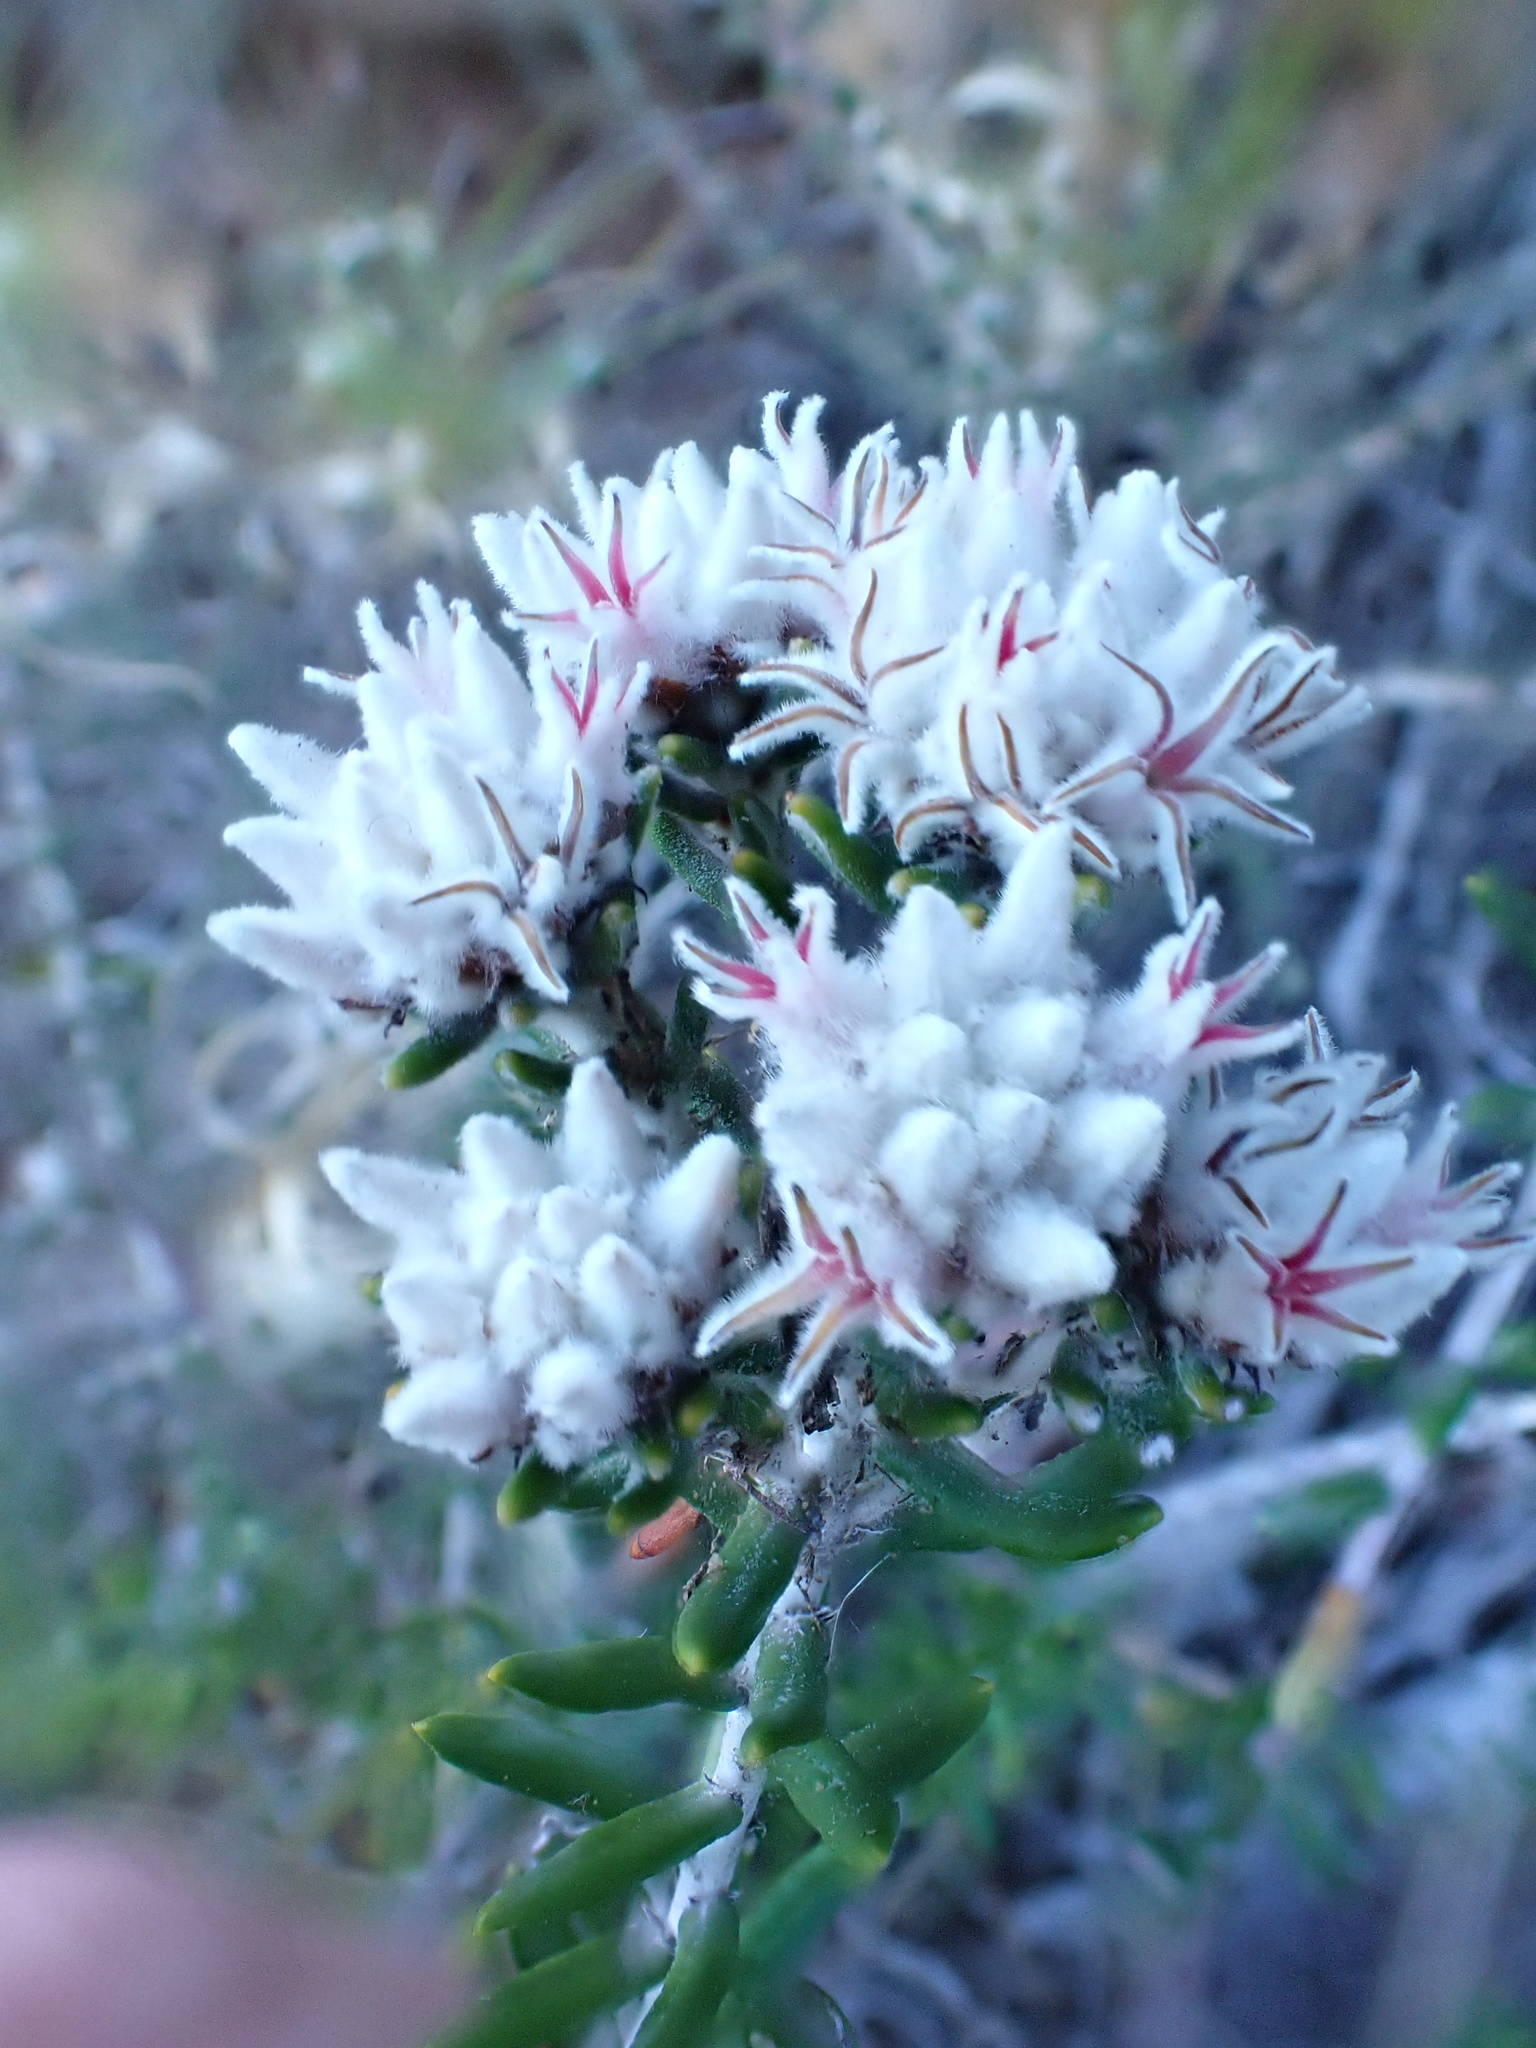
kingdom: Plantae
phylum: Tracheophyta
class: Magnoliopsida
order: Rosales
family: Rhamnaceae
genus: Trichocephalus
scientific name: Trichocephalus stipularis
